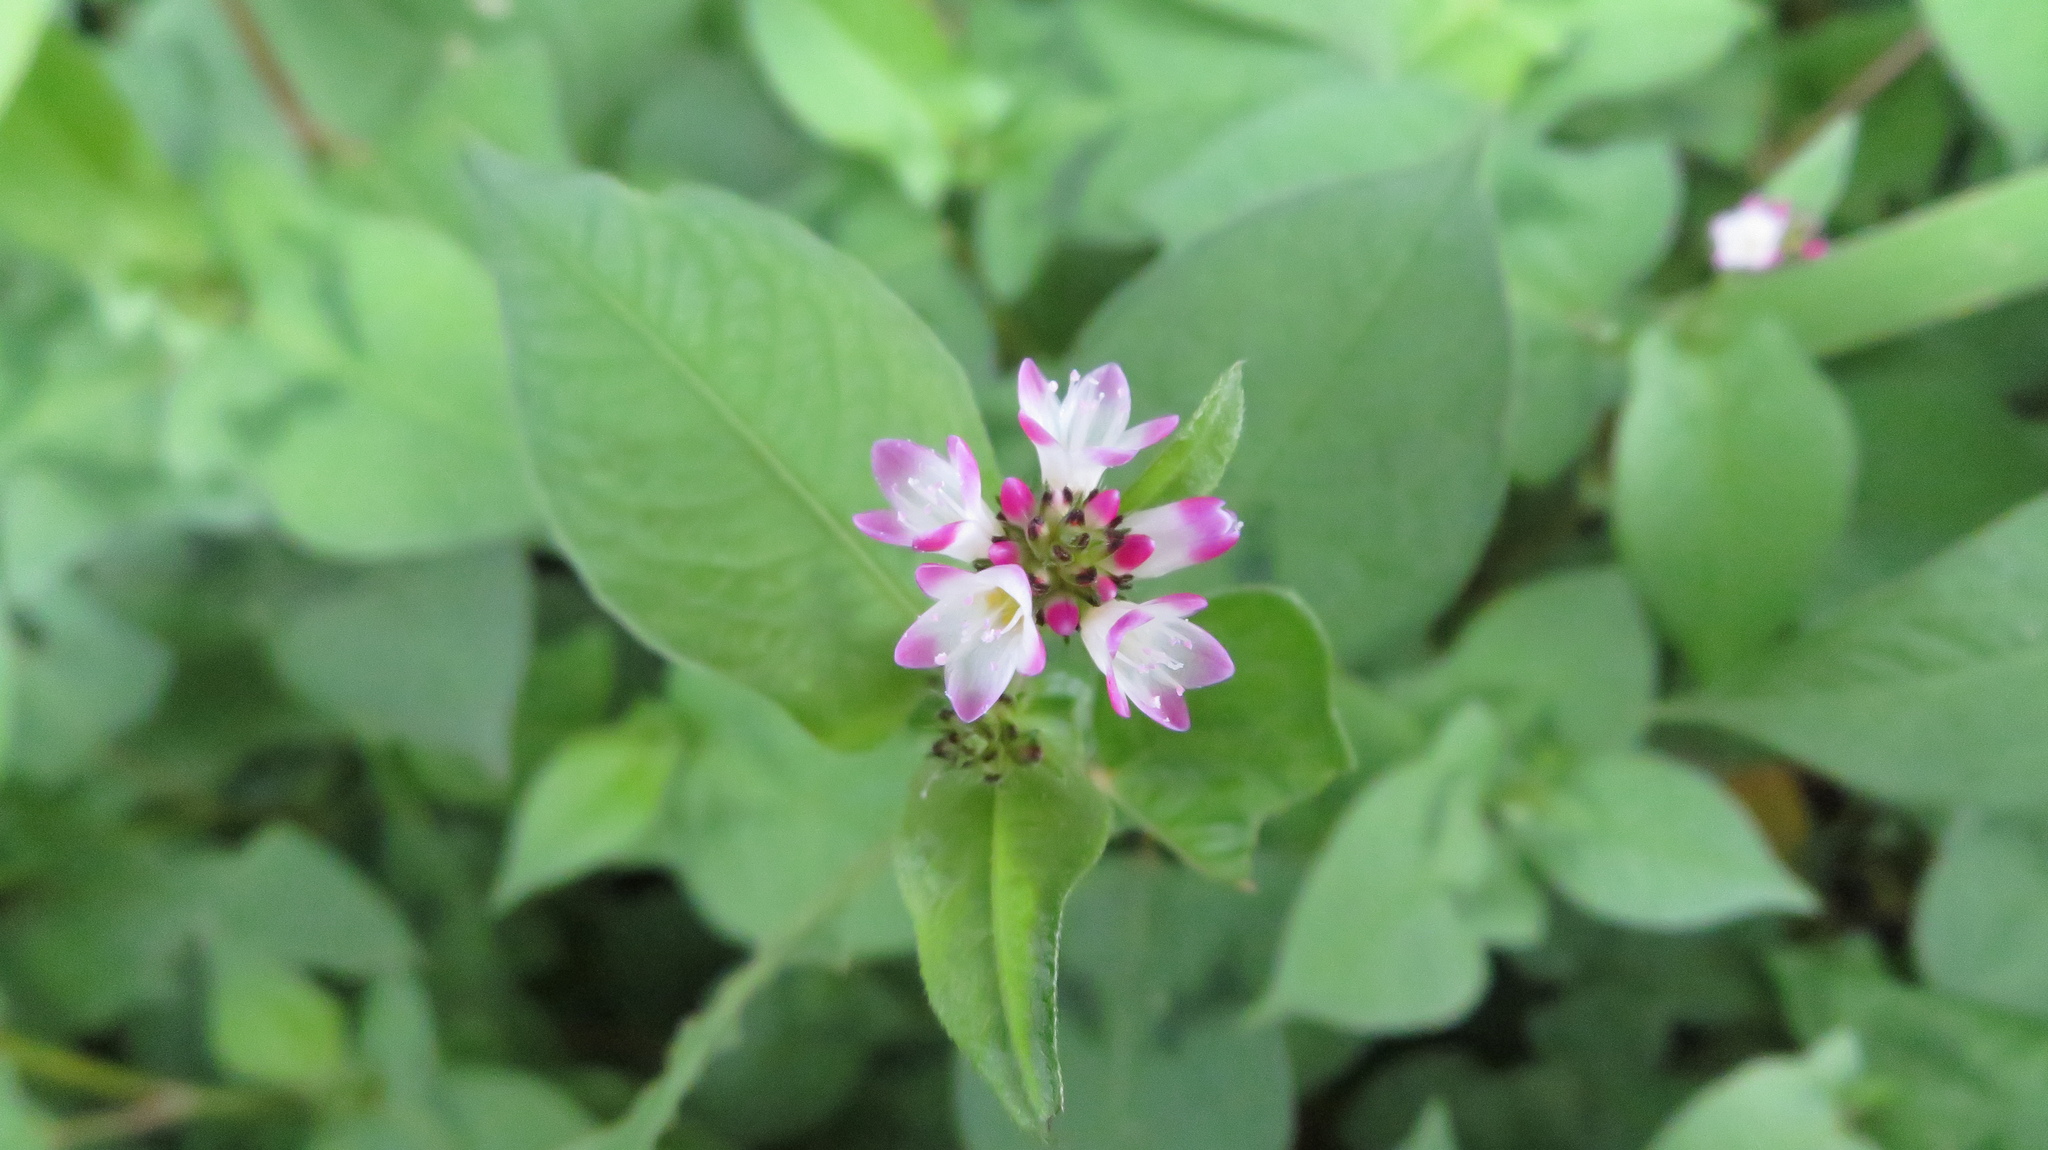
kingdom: Plantae
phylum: Tracheophyta
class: Magnoliopsida
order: Caryophyllales
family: Polygonaceae
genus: Persicaria
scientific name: Persicaria thunbergii
